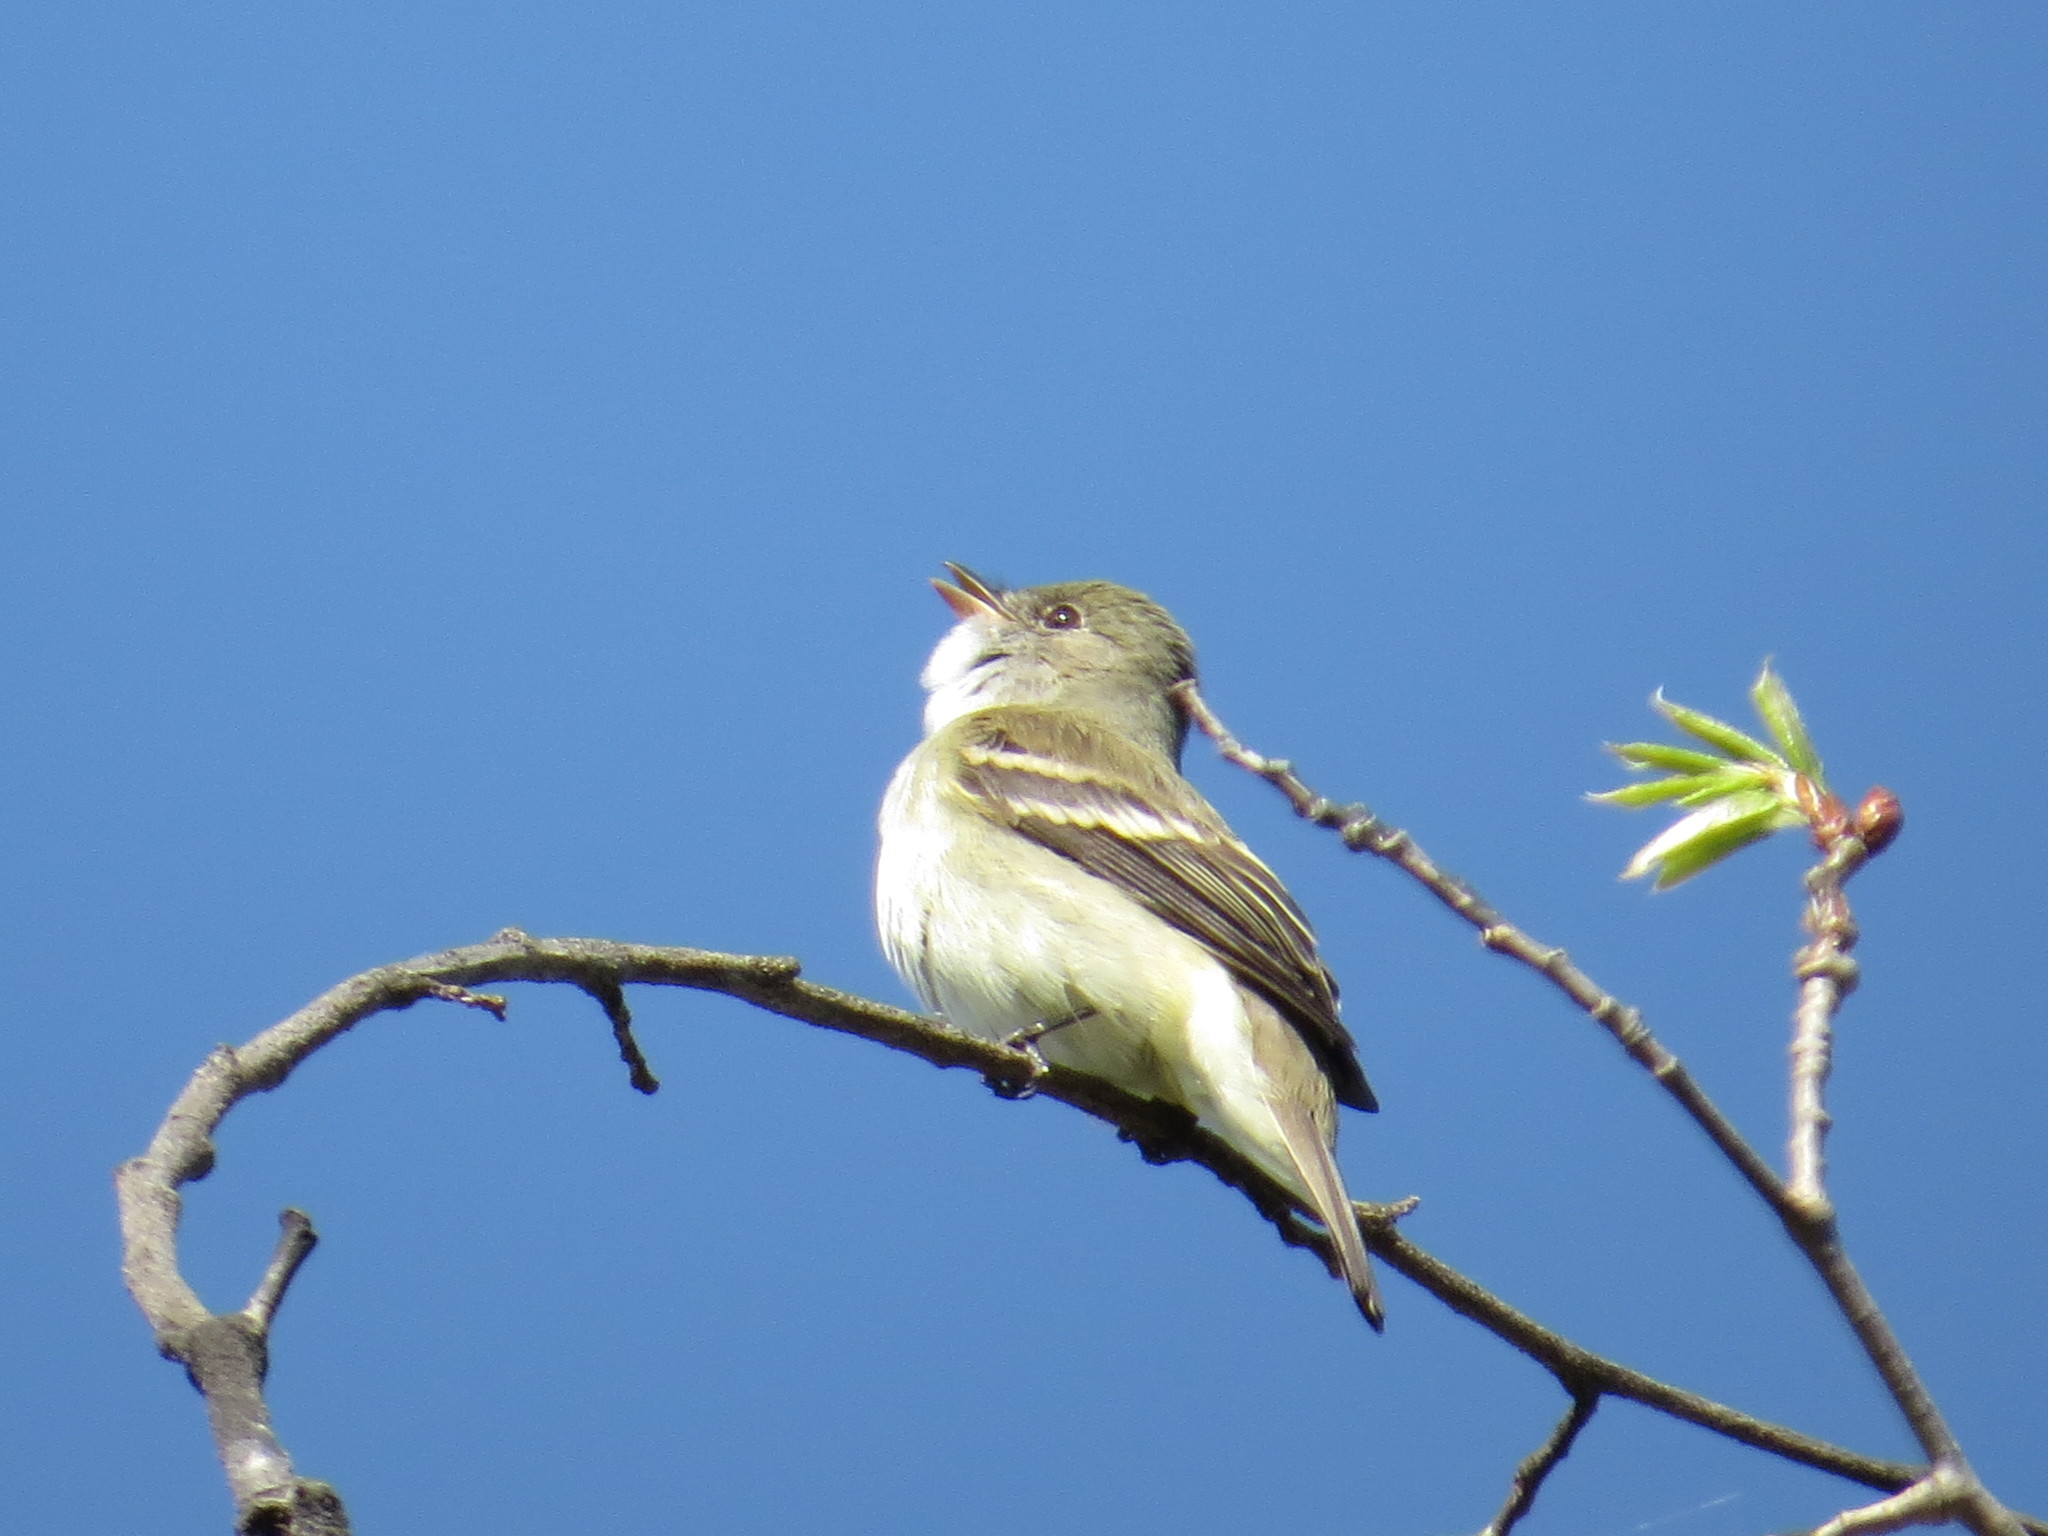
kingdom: Animalia
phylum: Chordata
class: Aves
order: Passeriformes
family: Tyrannidae
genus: Empidonax
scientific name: Empidonax alnorum
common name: Alder flycatcher
